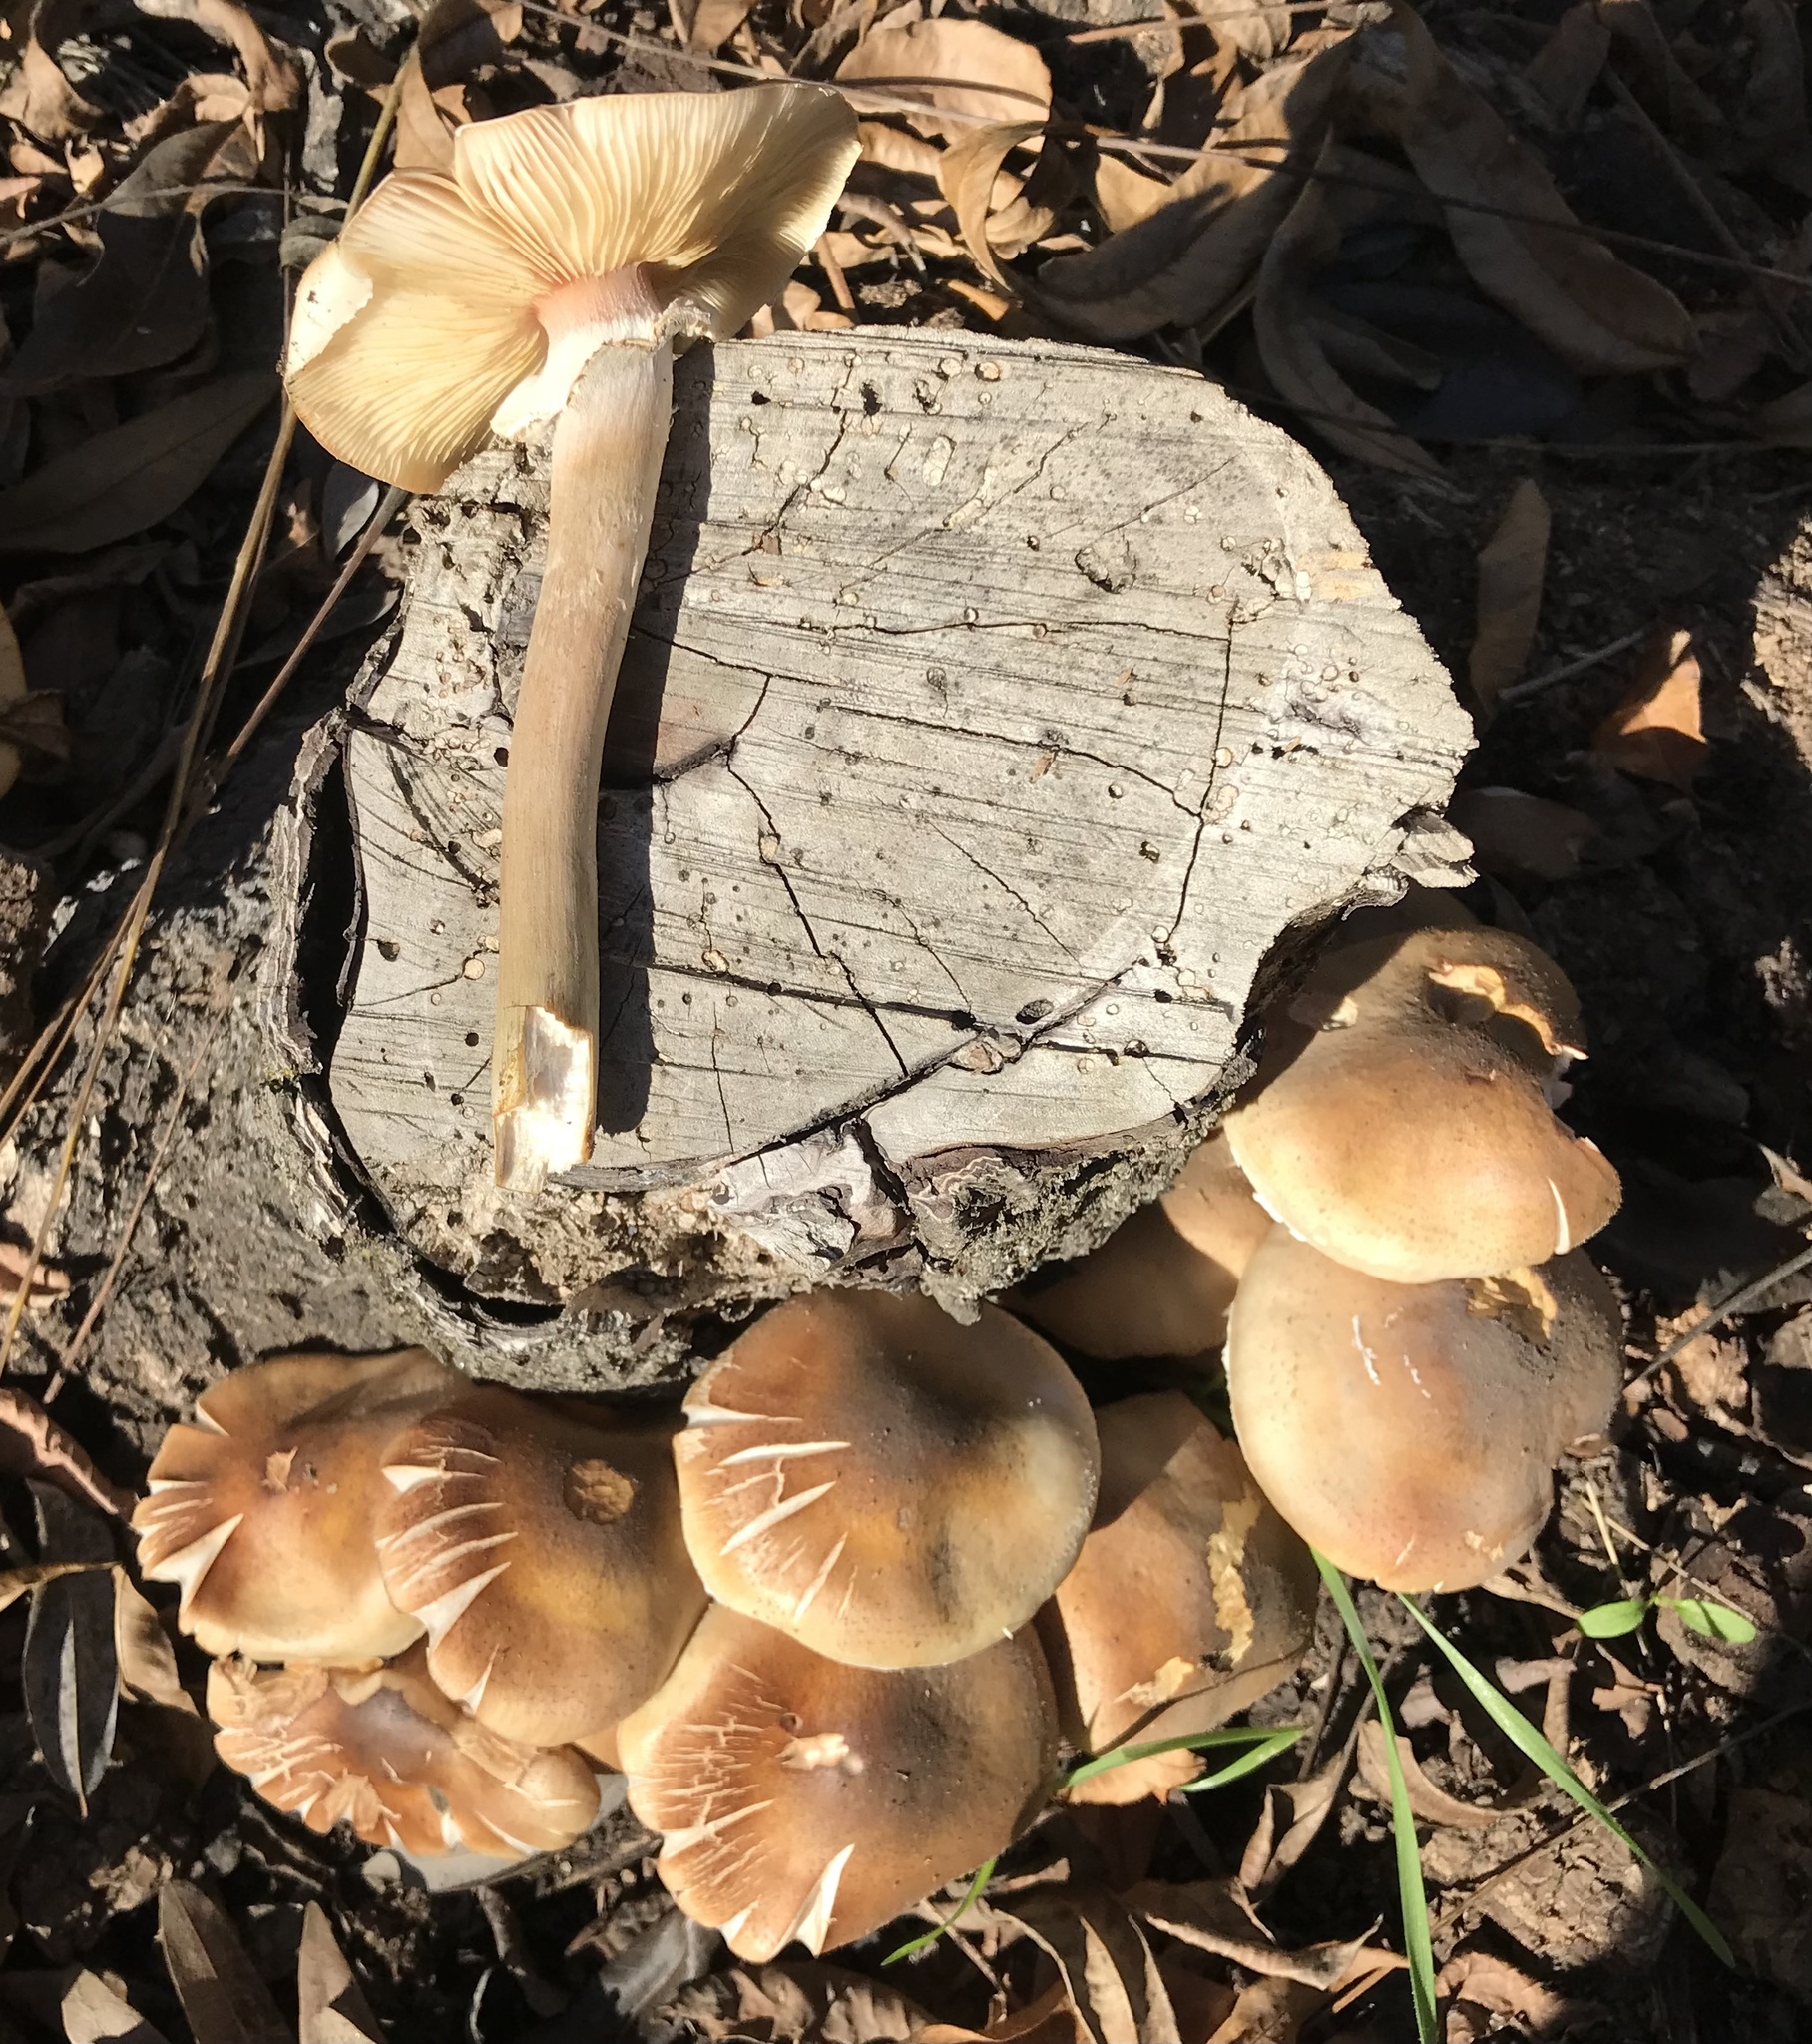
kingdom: Fungi
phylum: Basidiomycota
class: Agaricomycetes
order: Agaricales
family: Physalacriaceae
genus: Armillaria
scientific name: Armillaria mellea
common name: Honey fungus
